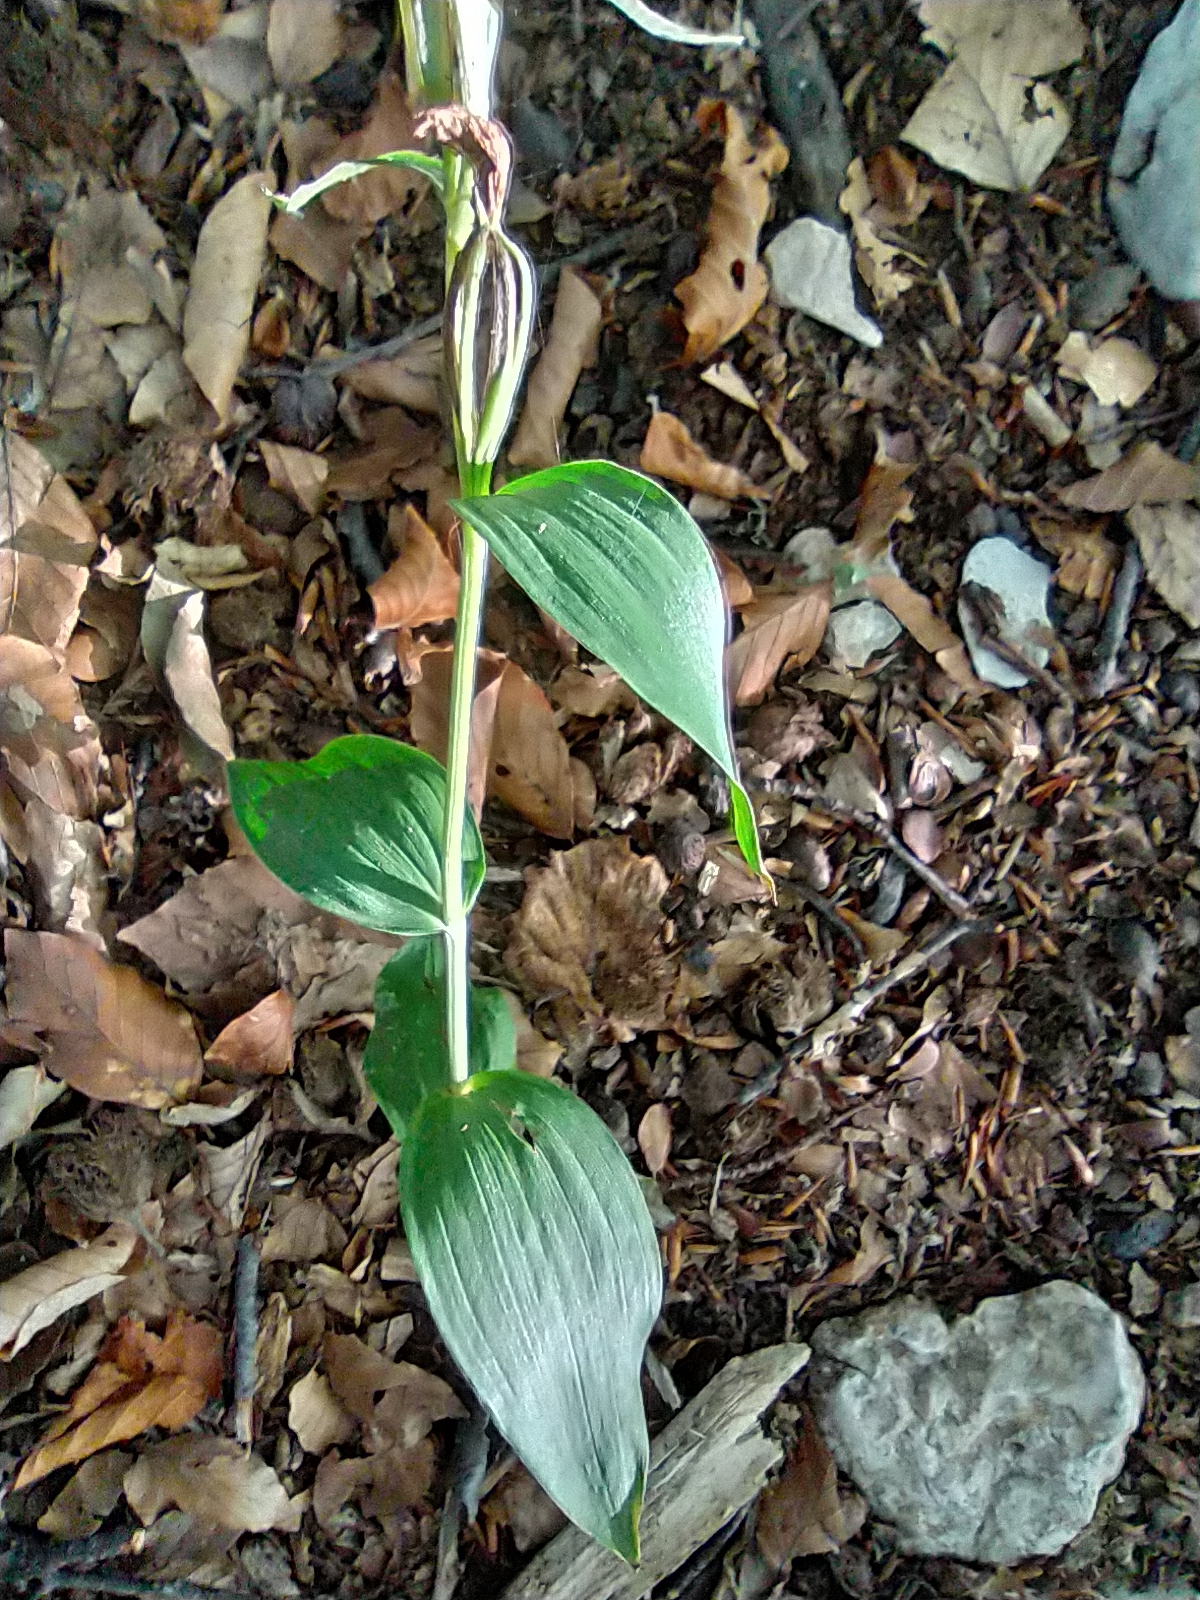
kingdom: Plantae
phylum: Tracheophyta
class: Liliopsida
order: Asparagales
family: Orchidaceae
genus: Cephalanthera
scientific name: Cephalanthera damasonium
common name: White helleborine
